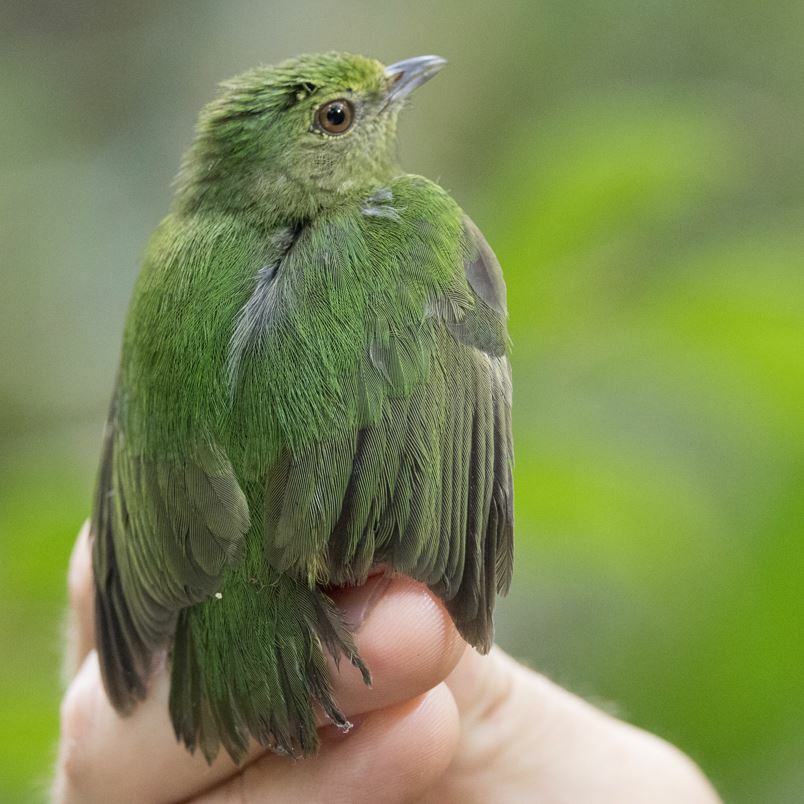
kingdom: Animalia
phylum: Chordata
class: Aves
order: Passeriformes
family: Pipridae
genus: Lepidothrix
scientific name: Lepidothrix coronata
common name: Blue-crowned manakin
